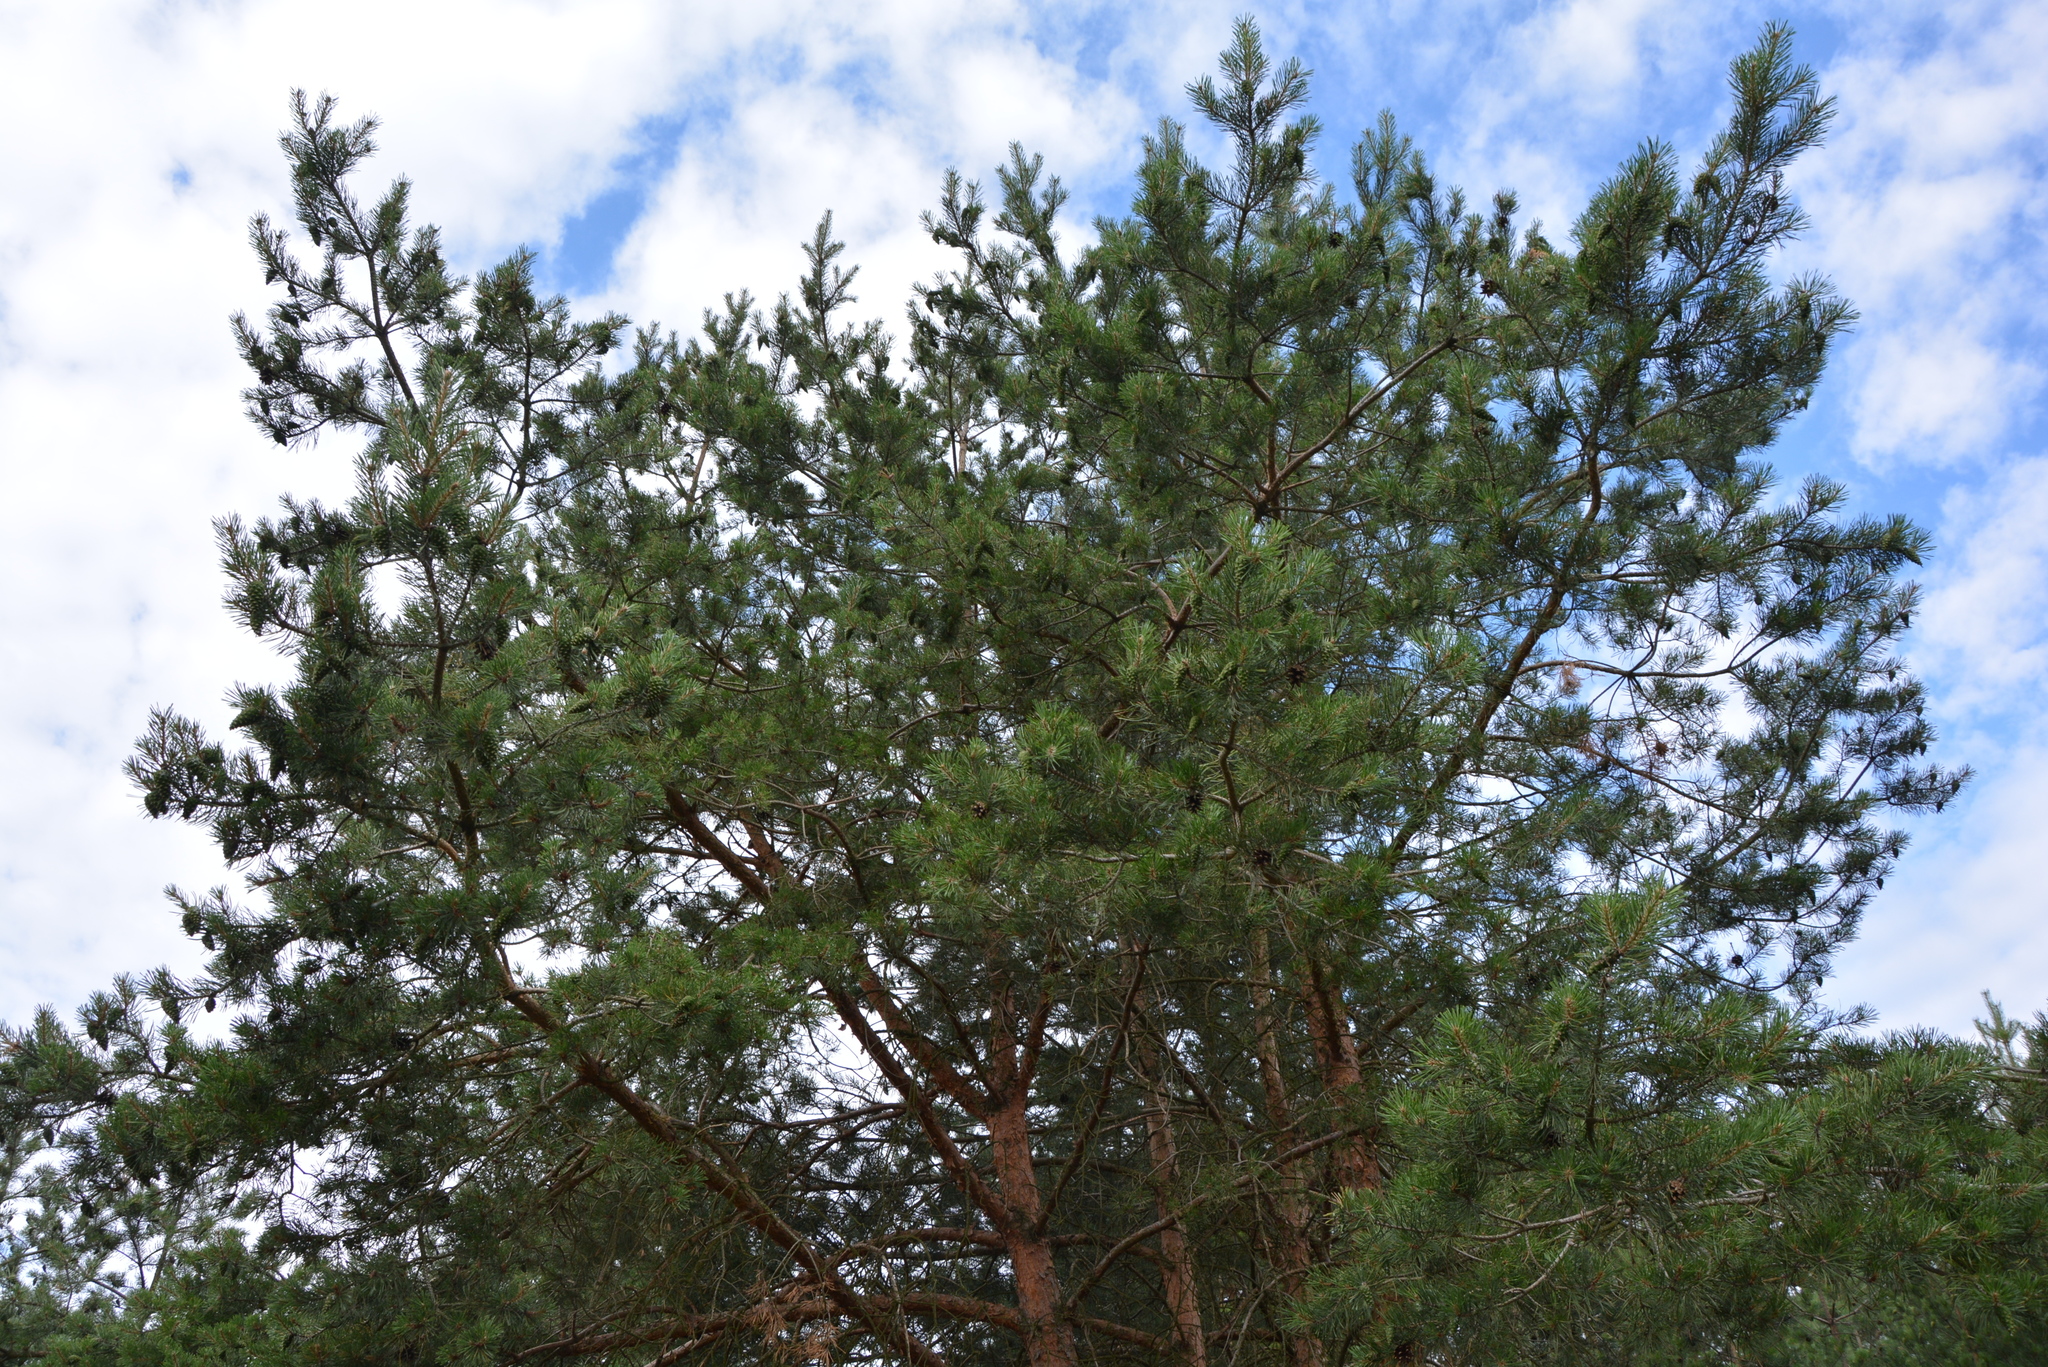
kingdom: Plantae
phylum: Tracheophyta
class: Pinopsida
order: Pinales
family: Pinaceae
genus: Pinus
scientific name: Pinus sylvestris
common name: Scots pine
